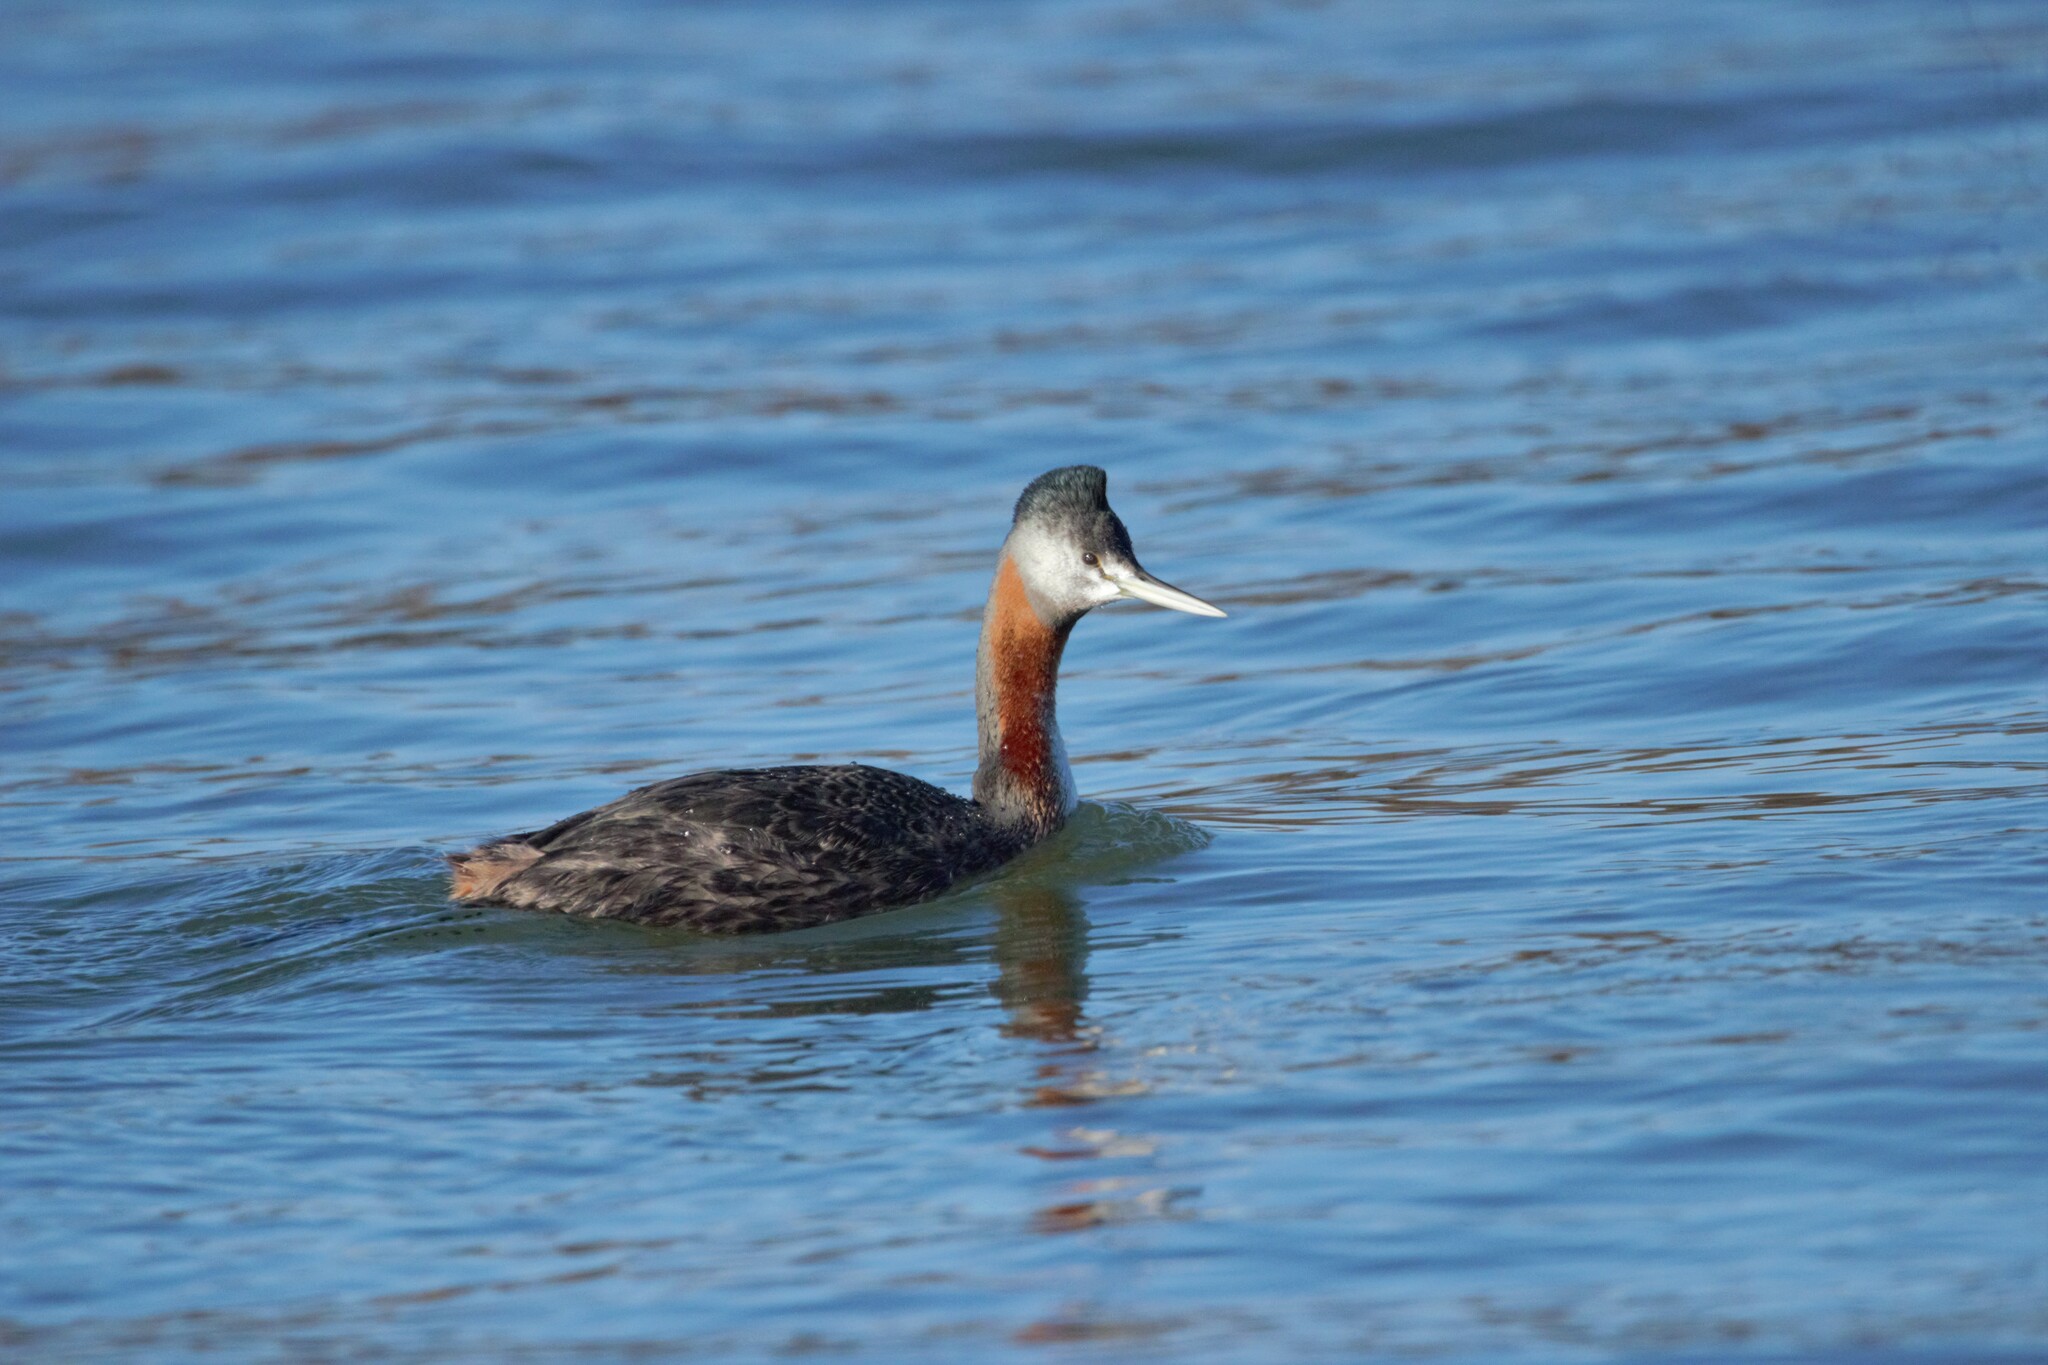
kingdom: Animalia
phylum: Chordata
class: Aves
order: Podicipediformes
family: Podicipedidae
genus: Podiceps
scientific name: Podiceps major
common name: Great grebe
